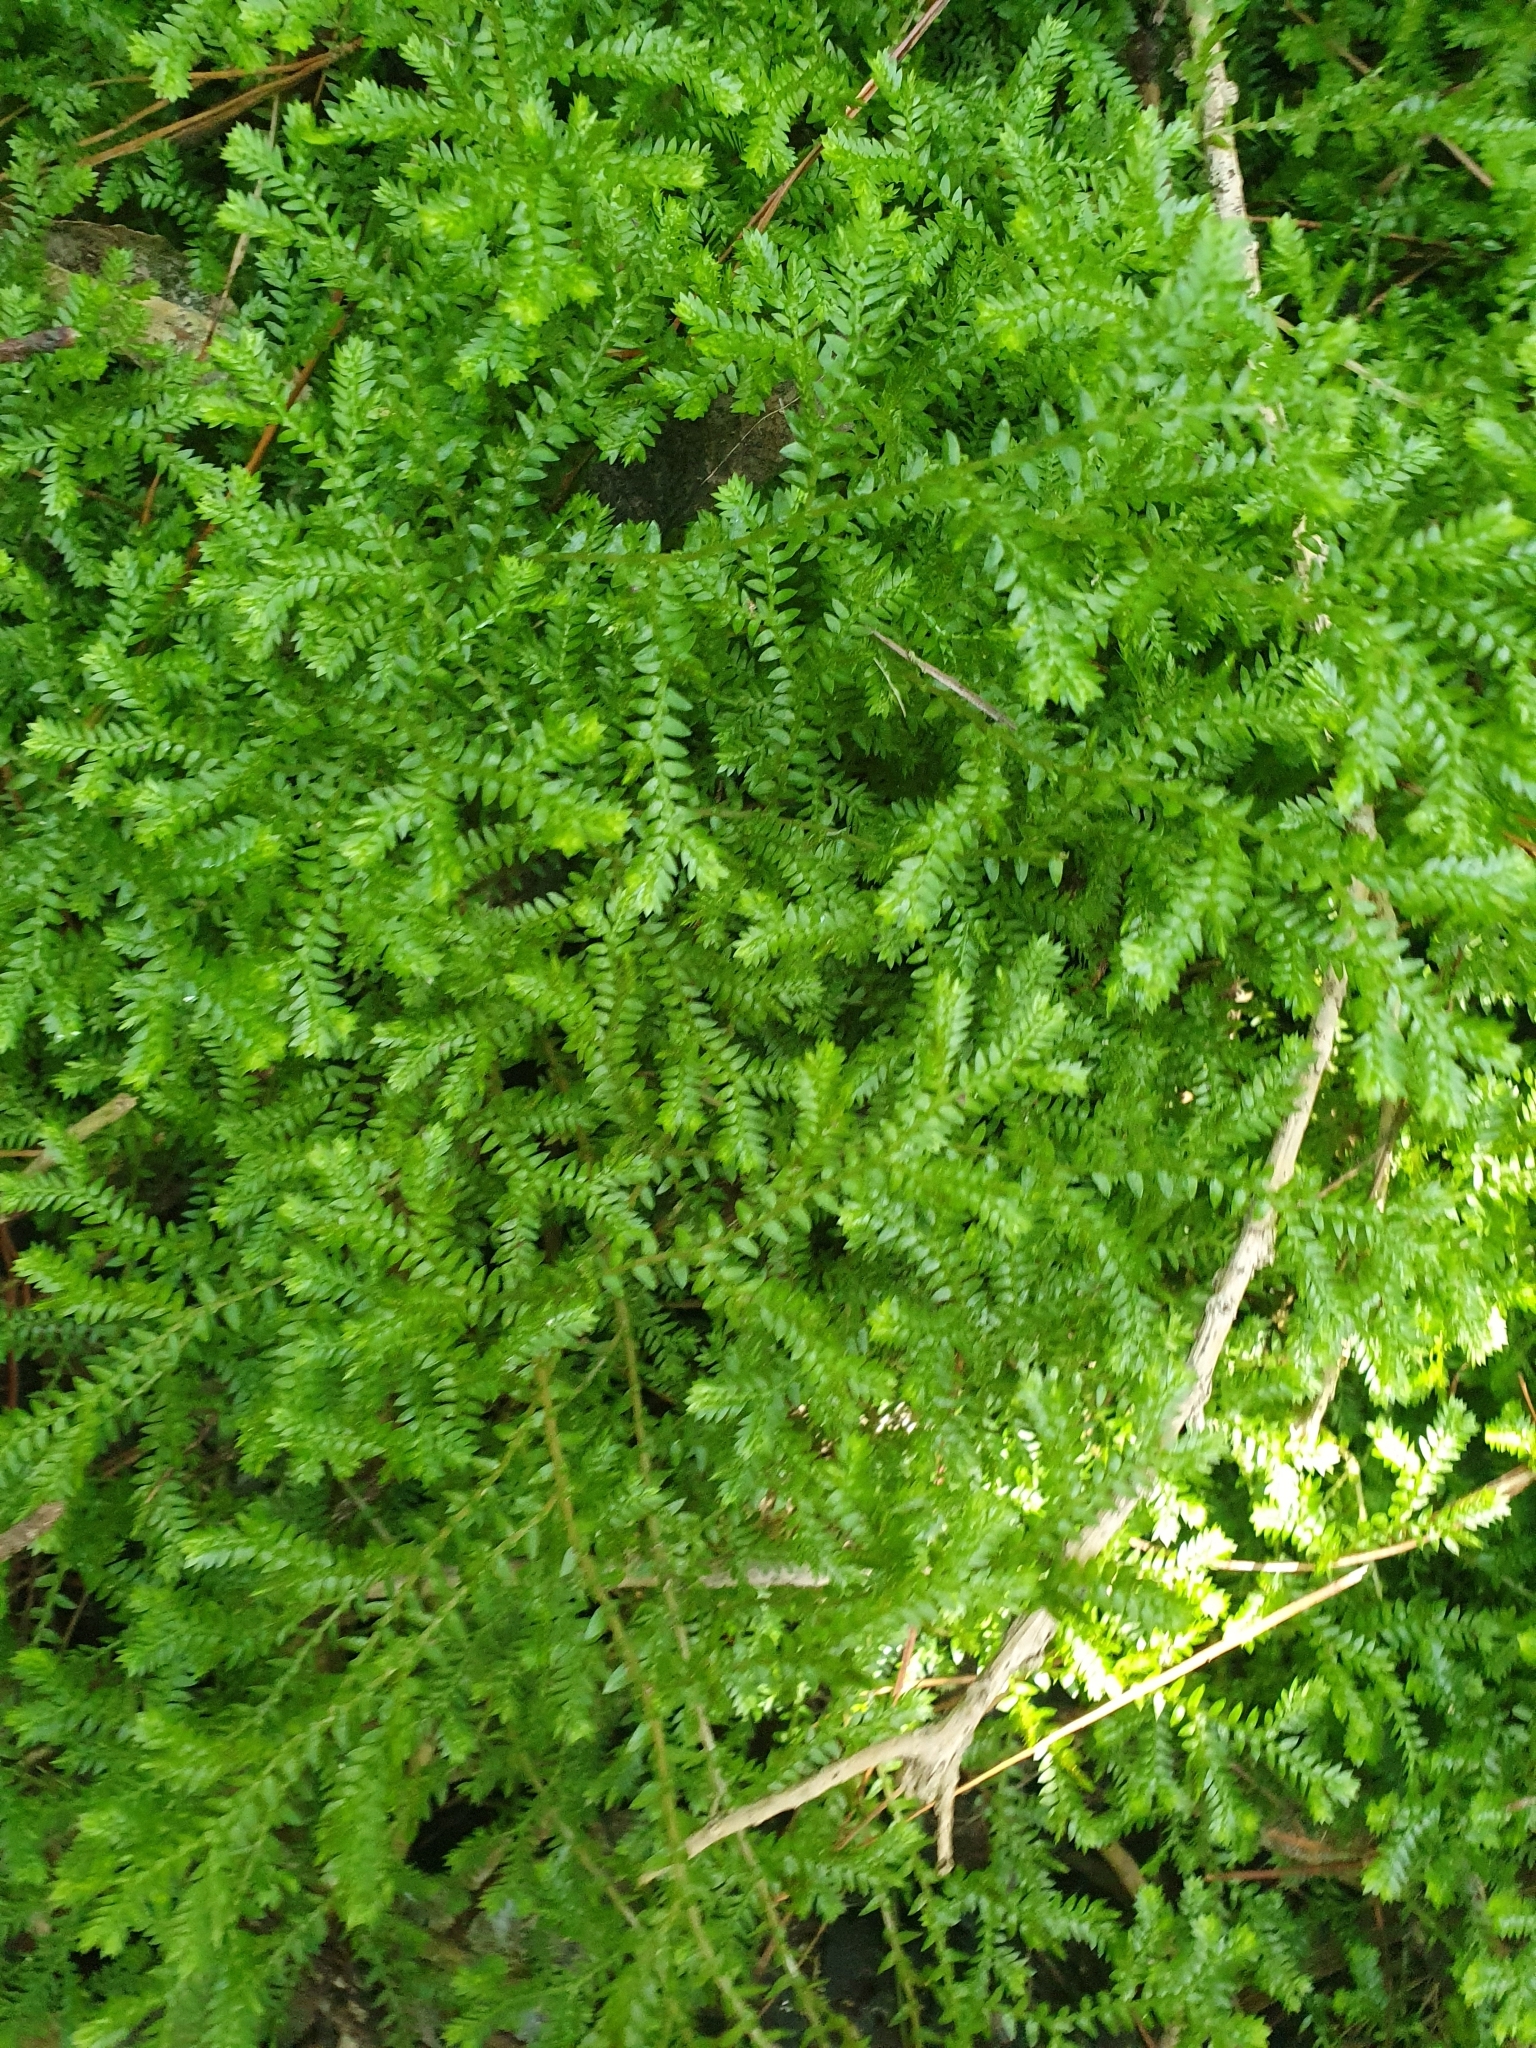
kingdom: Plantae
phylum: Tracheophyta
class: Lycopodiopsida
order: Selaginellales
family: Selaginellaceae
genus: Selaginella
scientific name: Selaginella kraussiana
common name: Krauss' spikemoss
